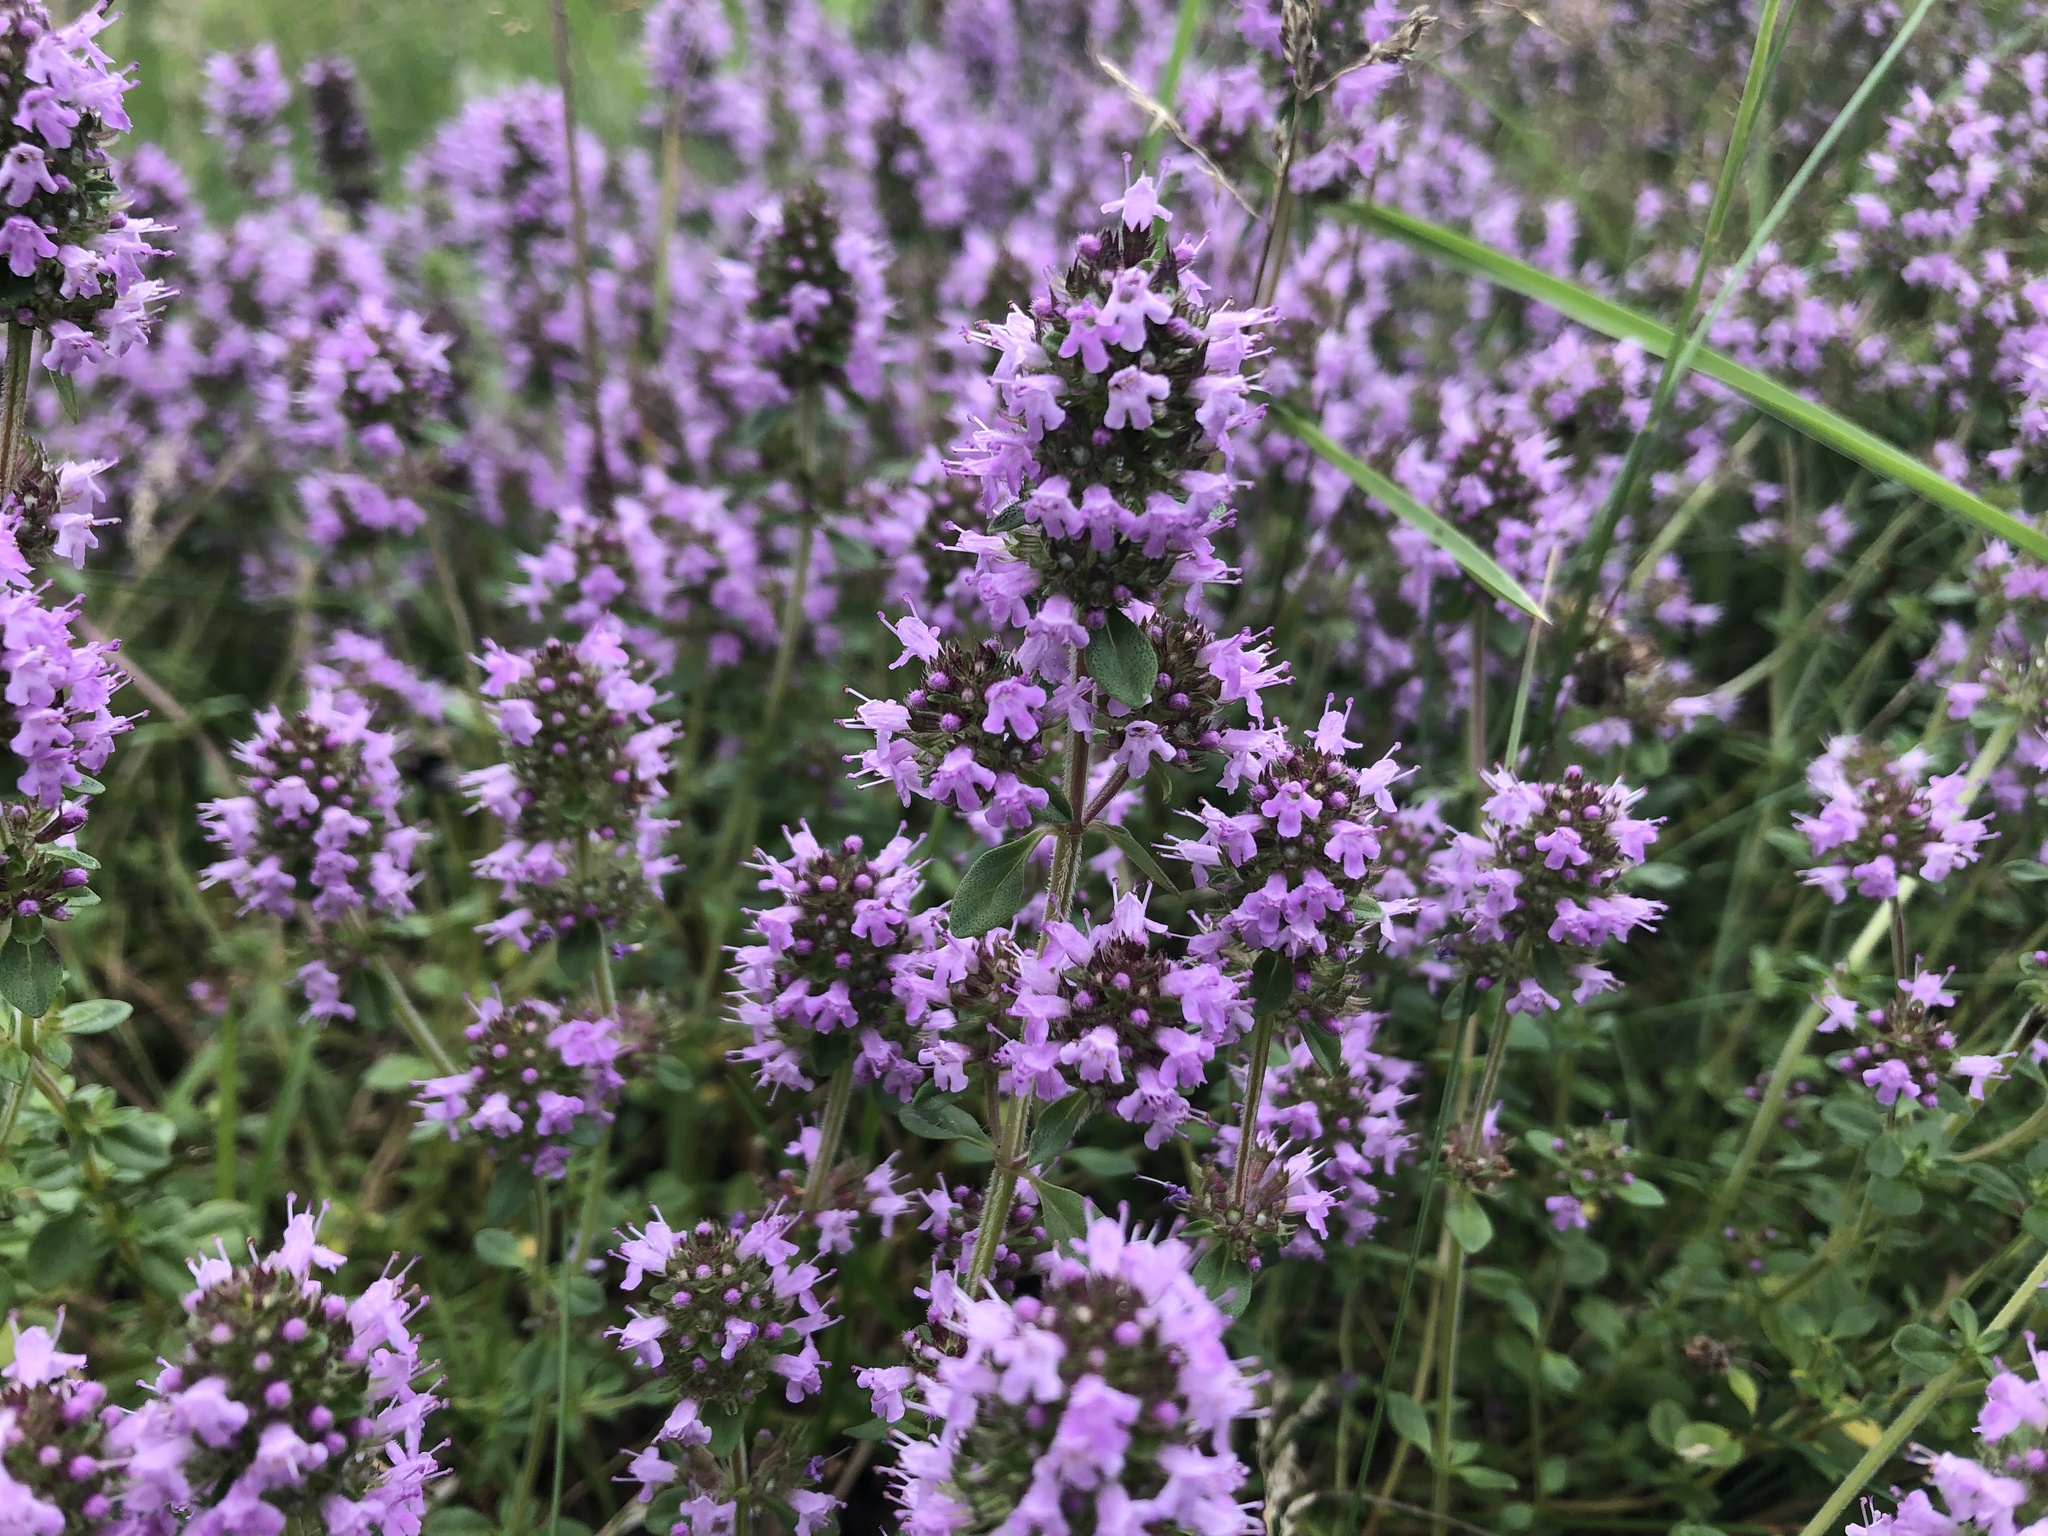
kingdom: Plantae
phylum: Tracheophyta
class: Magnoliopsida
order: Lamiales
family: Lamiaceae
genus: Thymus
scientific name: Thymus pulegioides
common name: Large thyme
